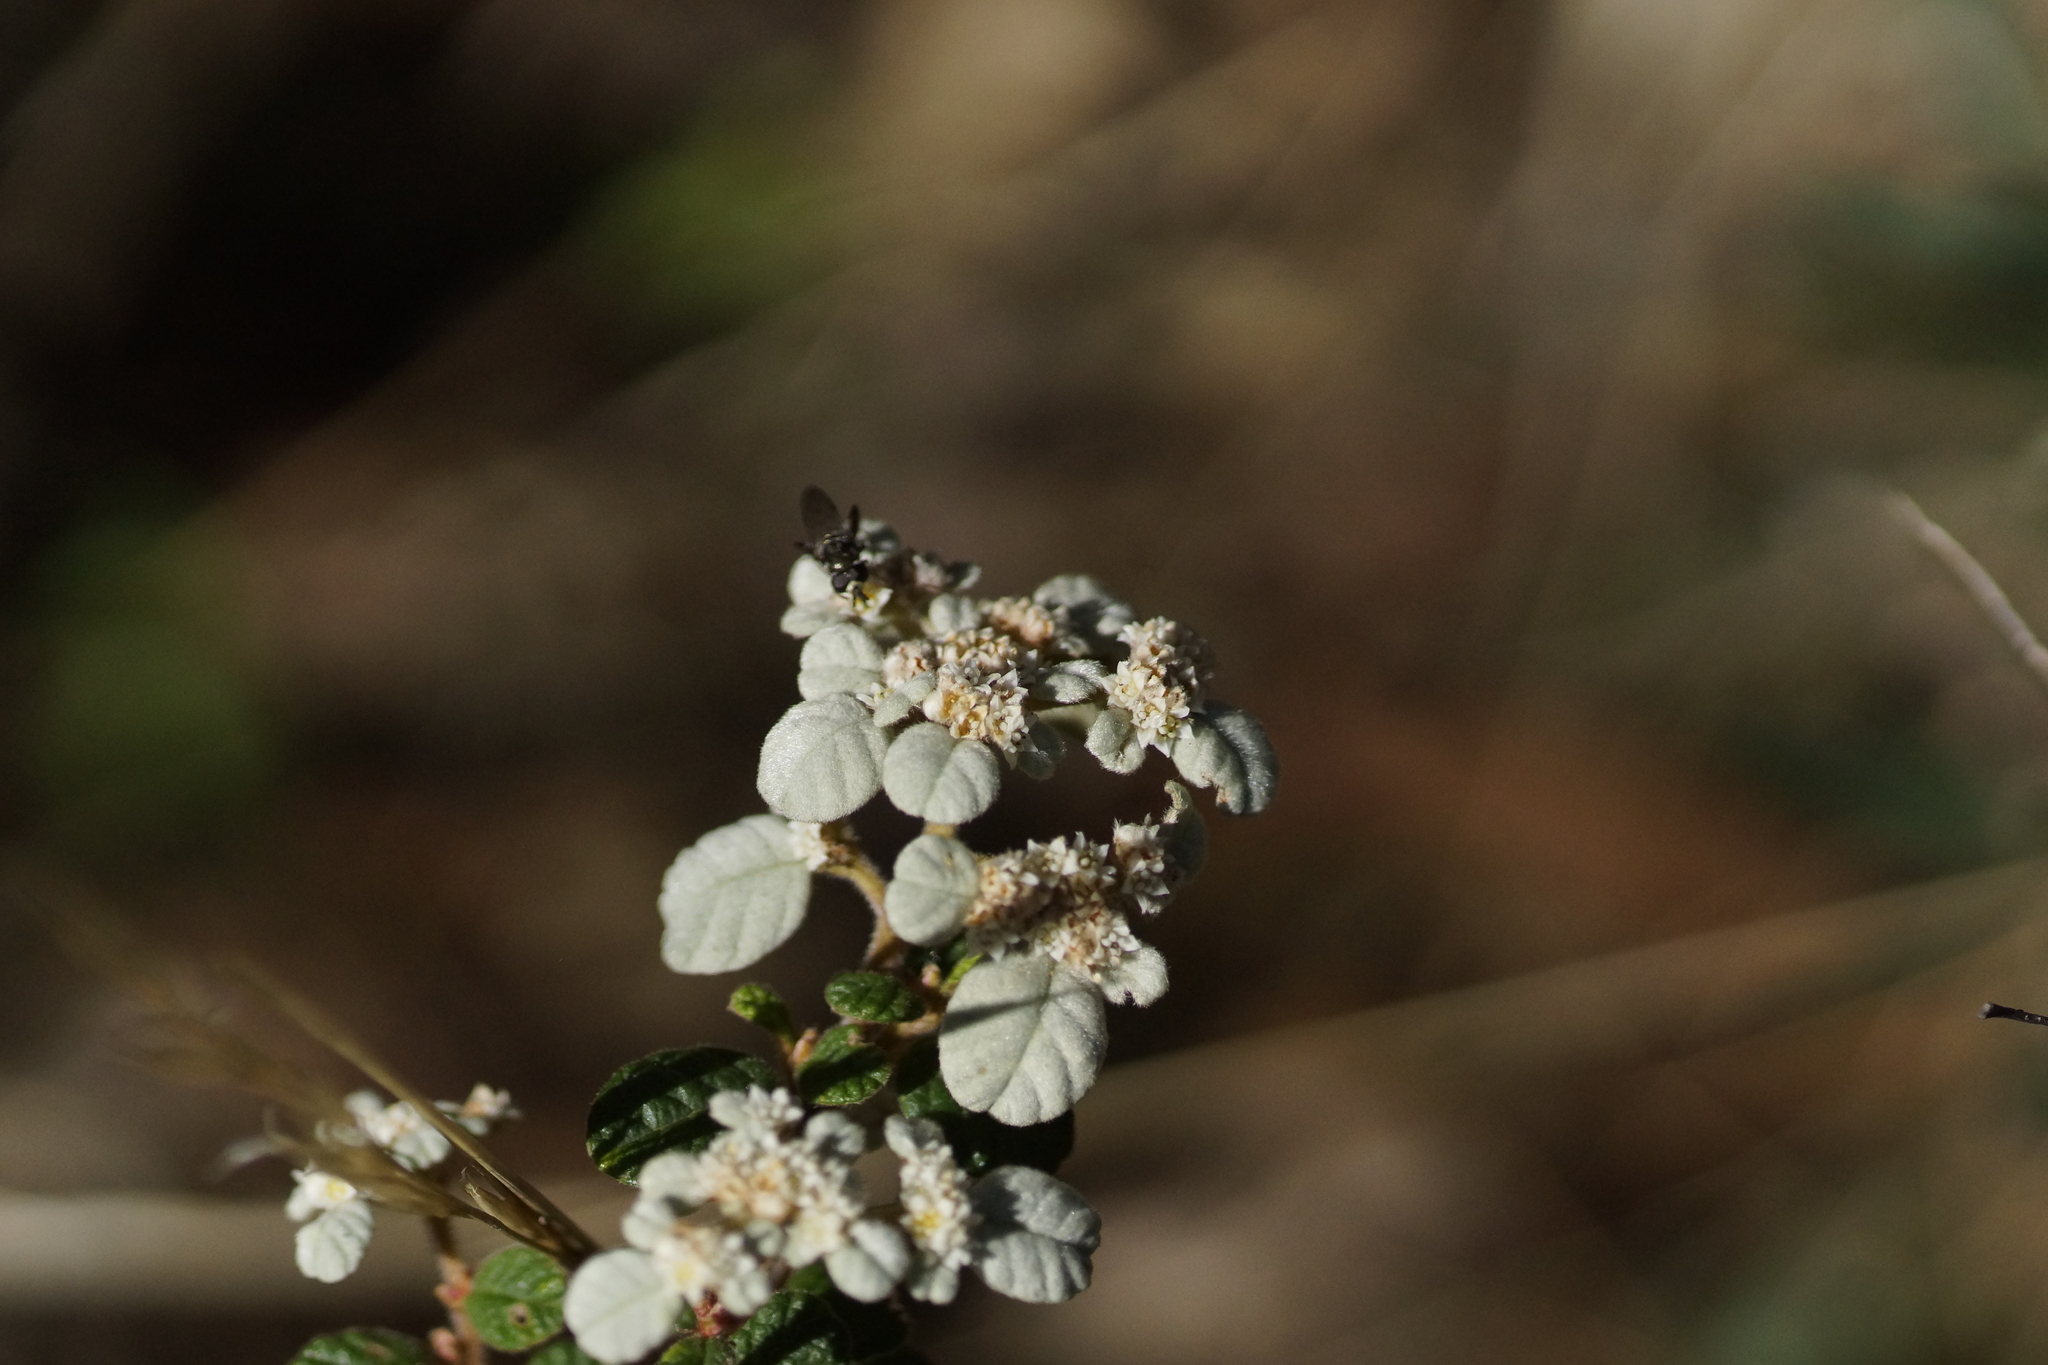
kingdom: Plantae
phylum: Tracheophyta
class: Magnoliopsida
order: Rosales
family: Rhamnaceae
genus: Spyridium
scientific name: Spyridium parvifolium
